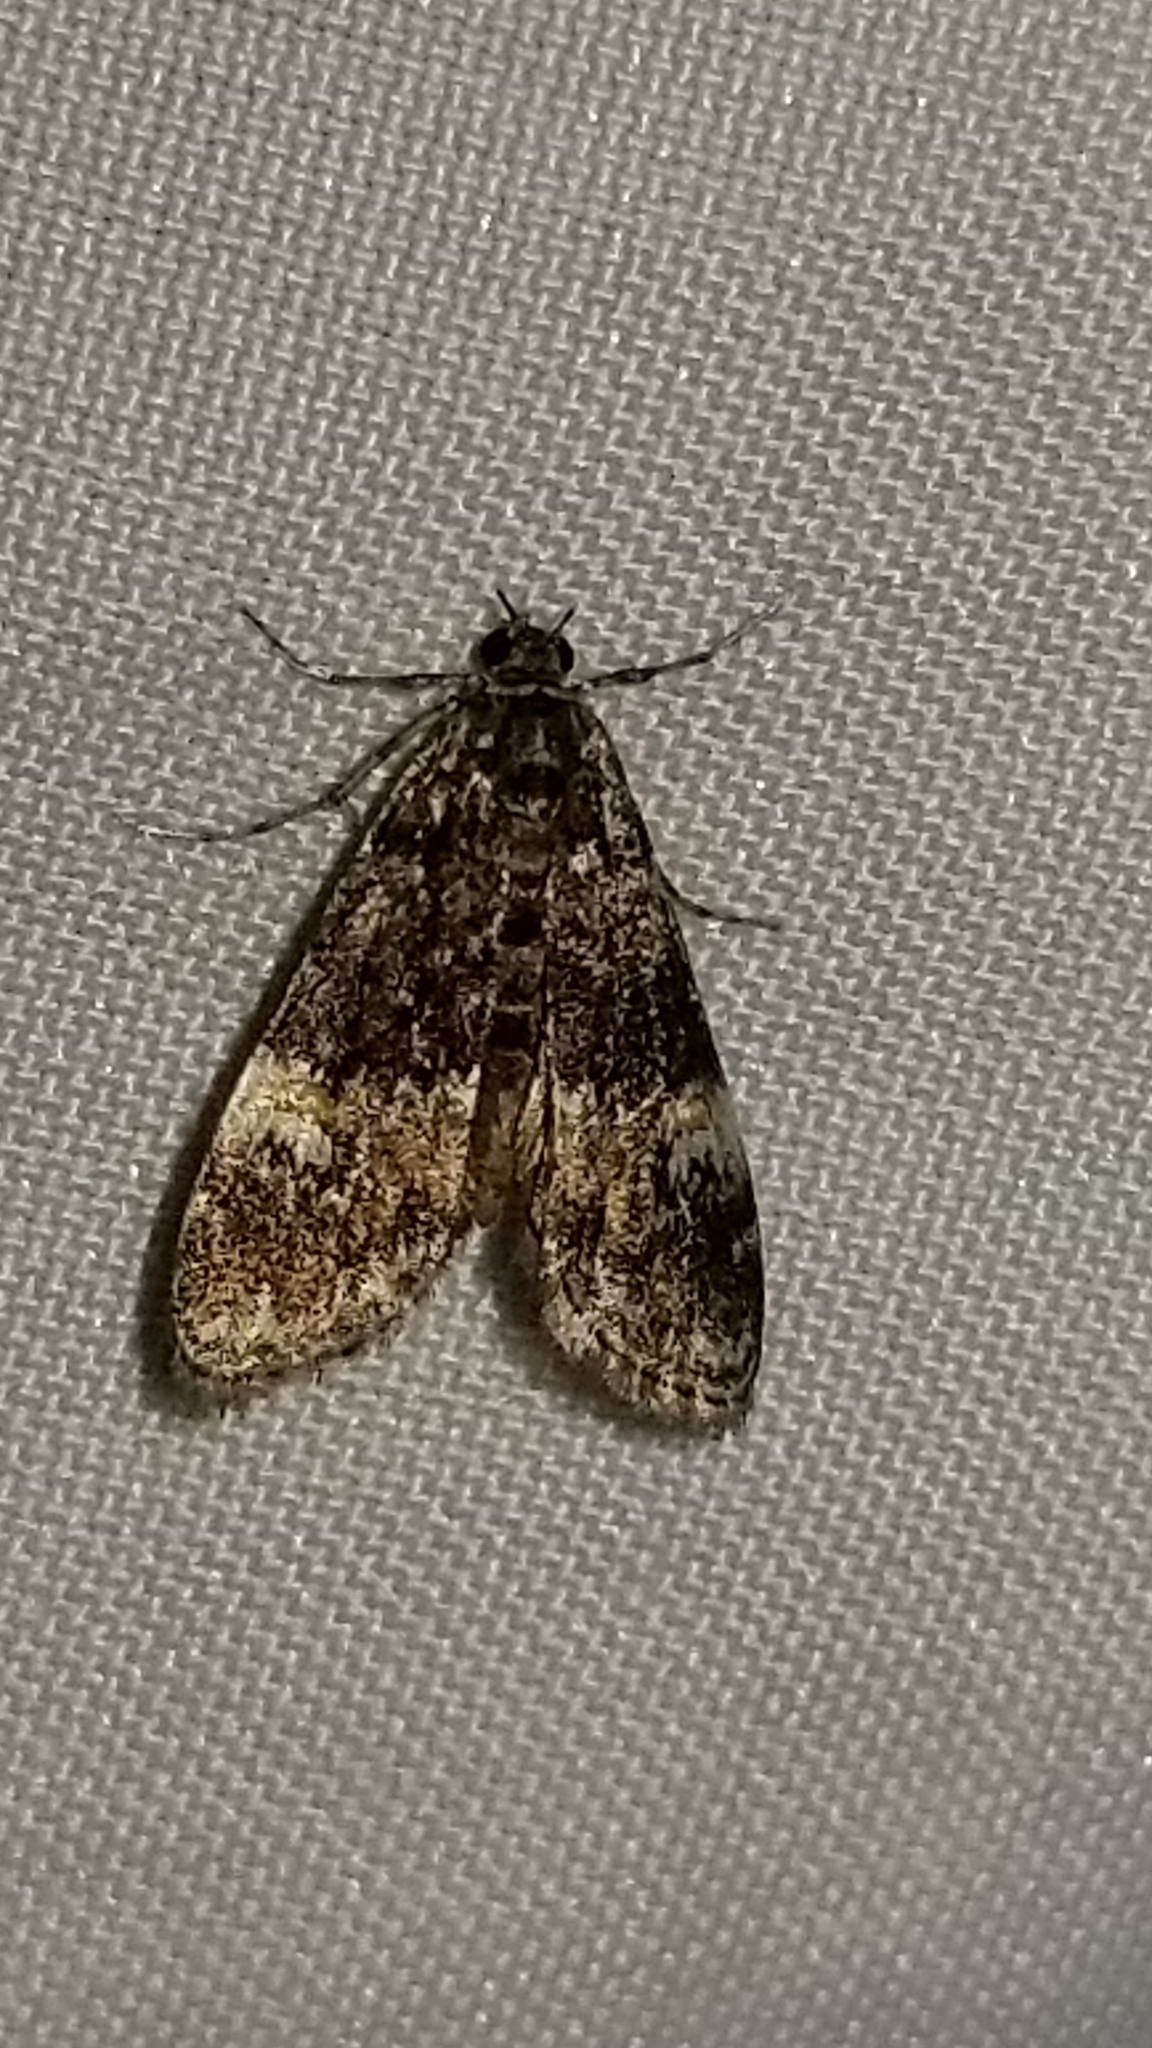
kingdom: Animalia
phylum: Arthropoda
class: Insecta
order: Lepidoptera
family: Crambidae
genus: Elophila
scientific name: Elophila obliteralis
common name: Waterlily leafcutter moth
